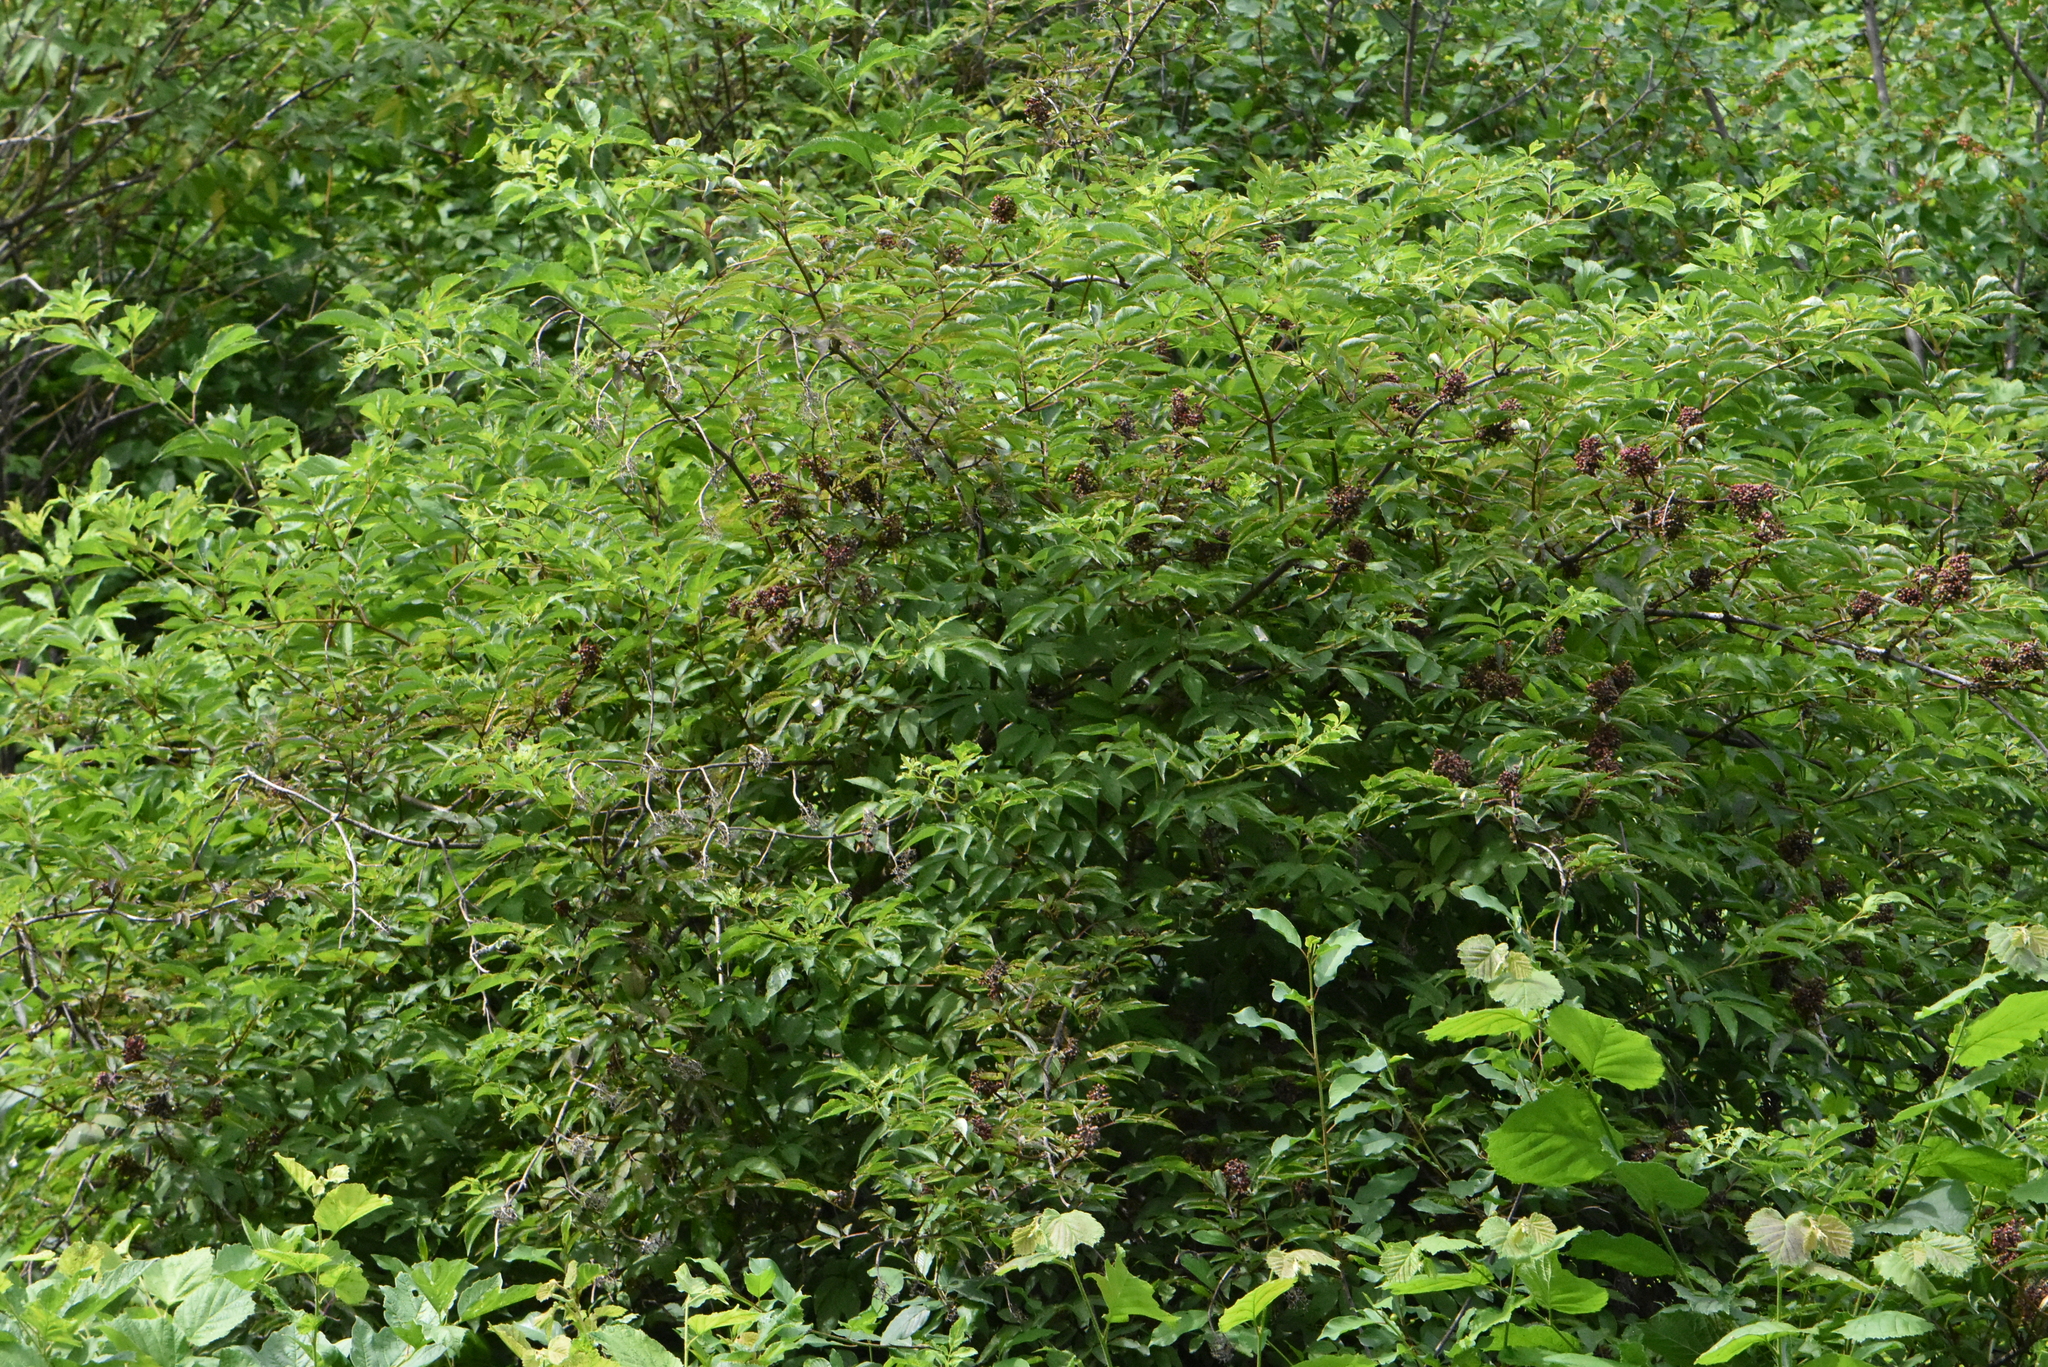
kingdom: Plantae
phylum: Tracheophyta
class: Magnoliopsida
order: Dipsacales
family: Viburnaceae
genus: Sambucus
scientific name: Sambucus racemosa
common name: Red-berried elder
